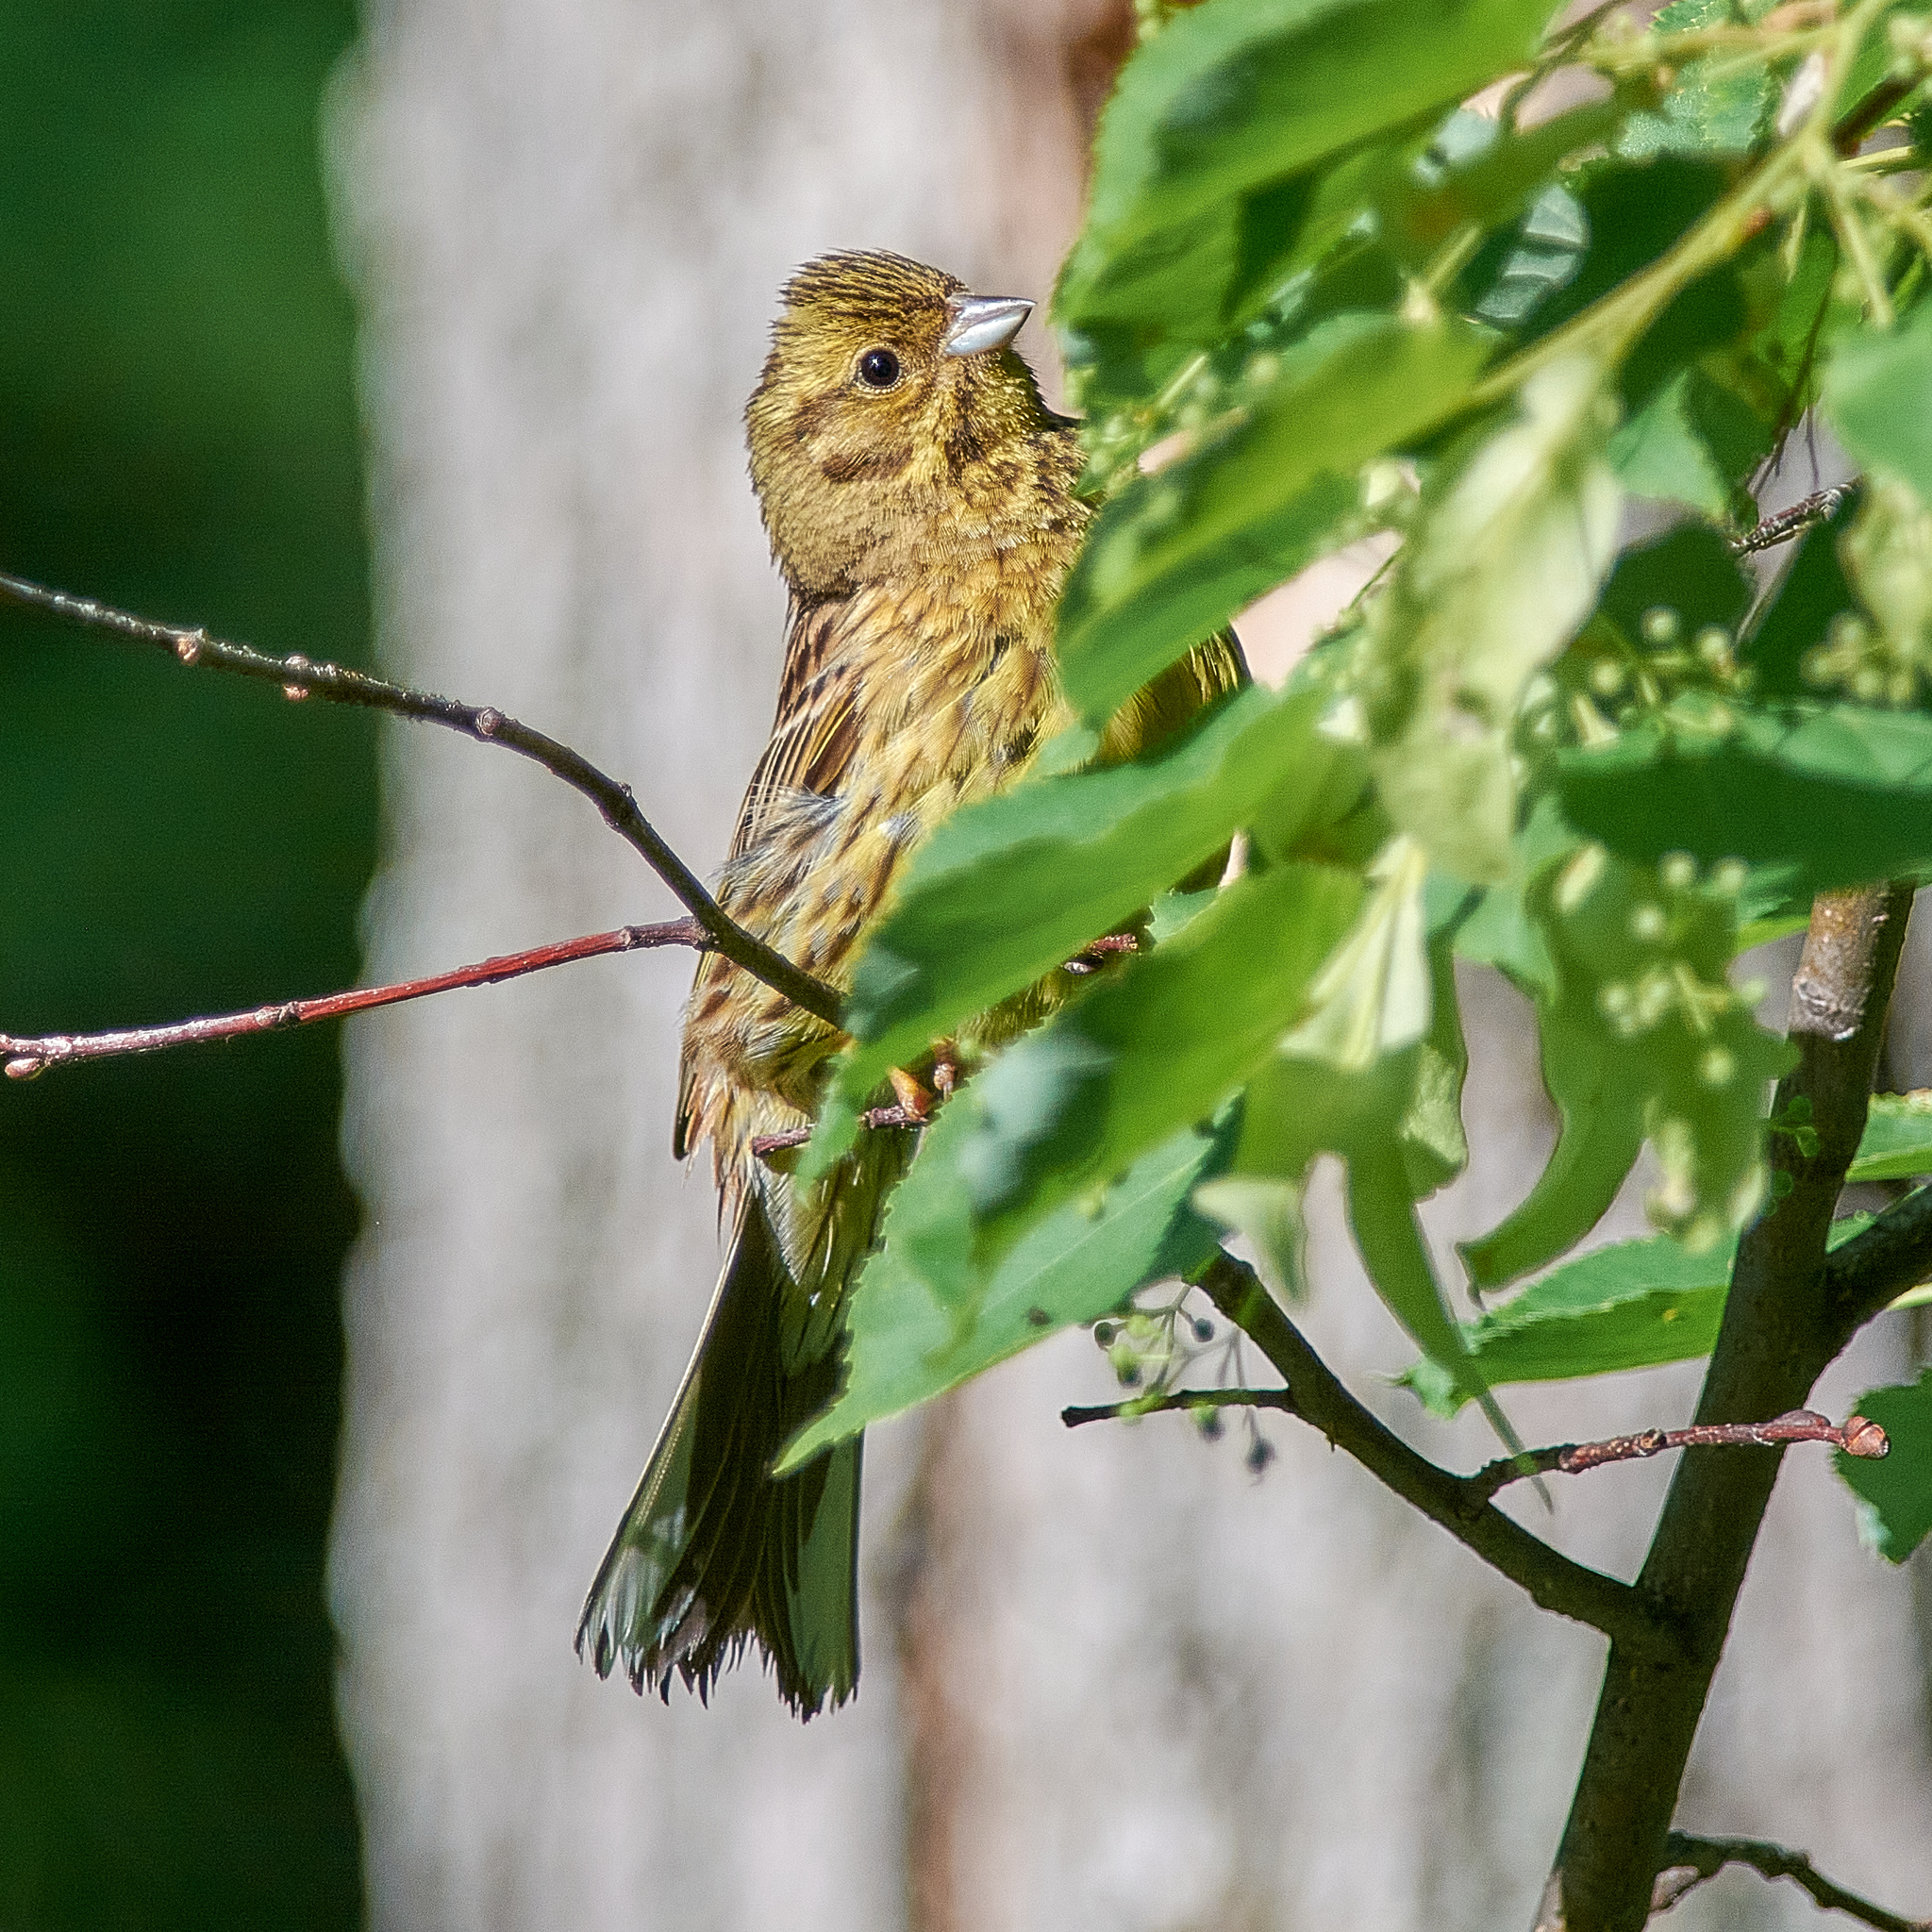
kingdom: Animalia
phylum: Chordata
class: Aves
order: Passeriformes
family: Emberizidae
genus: Emberiza
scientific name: Emberiza citrinella
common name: Yellowhammer
